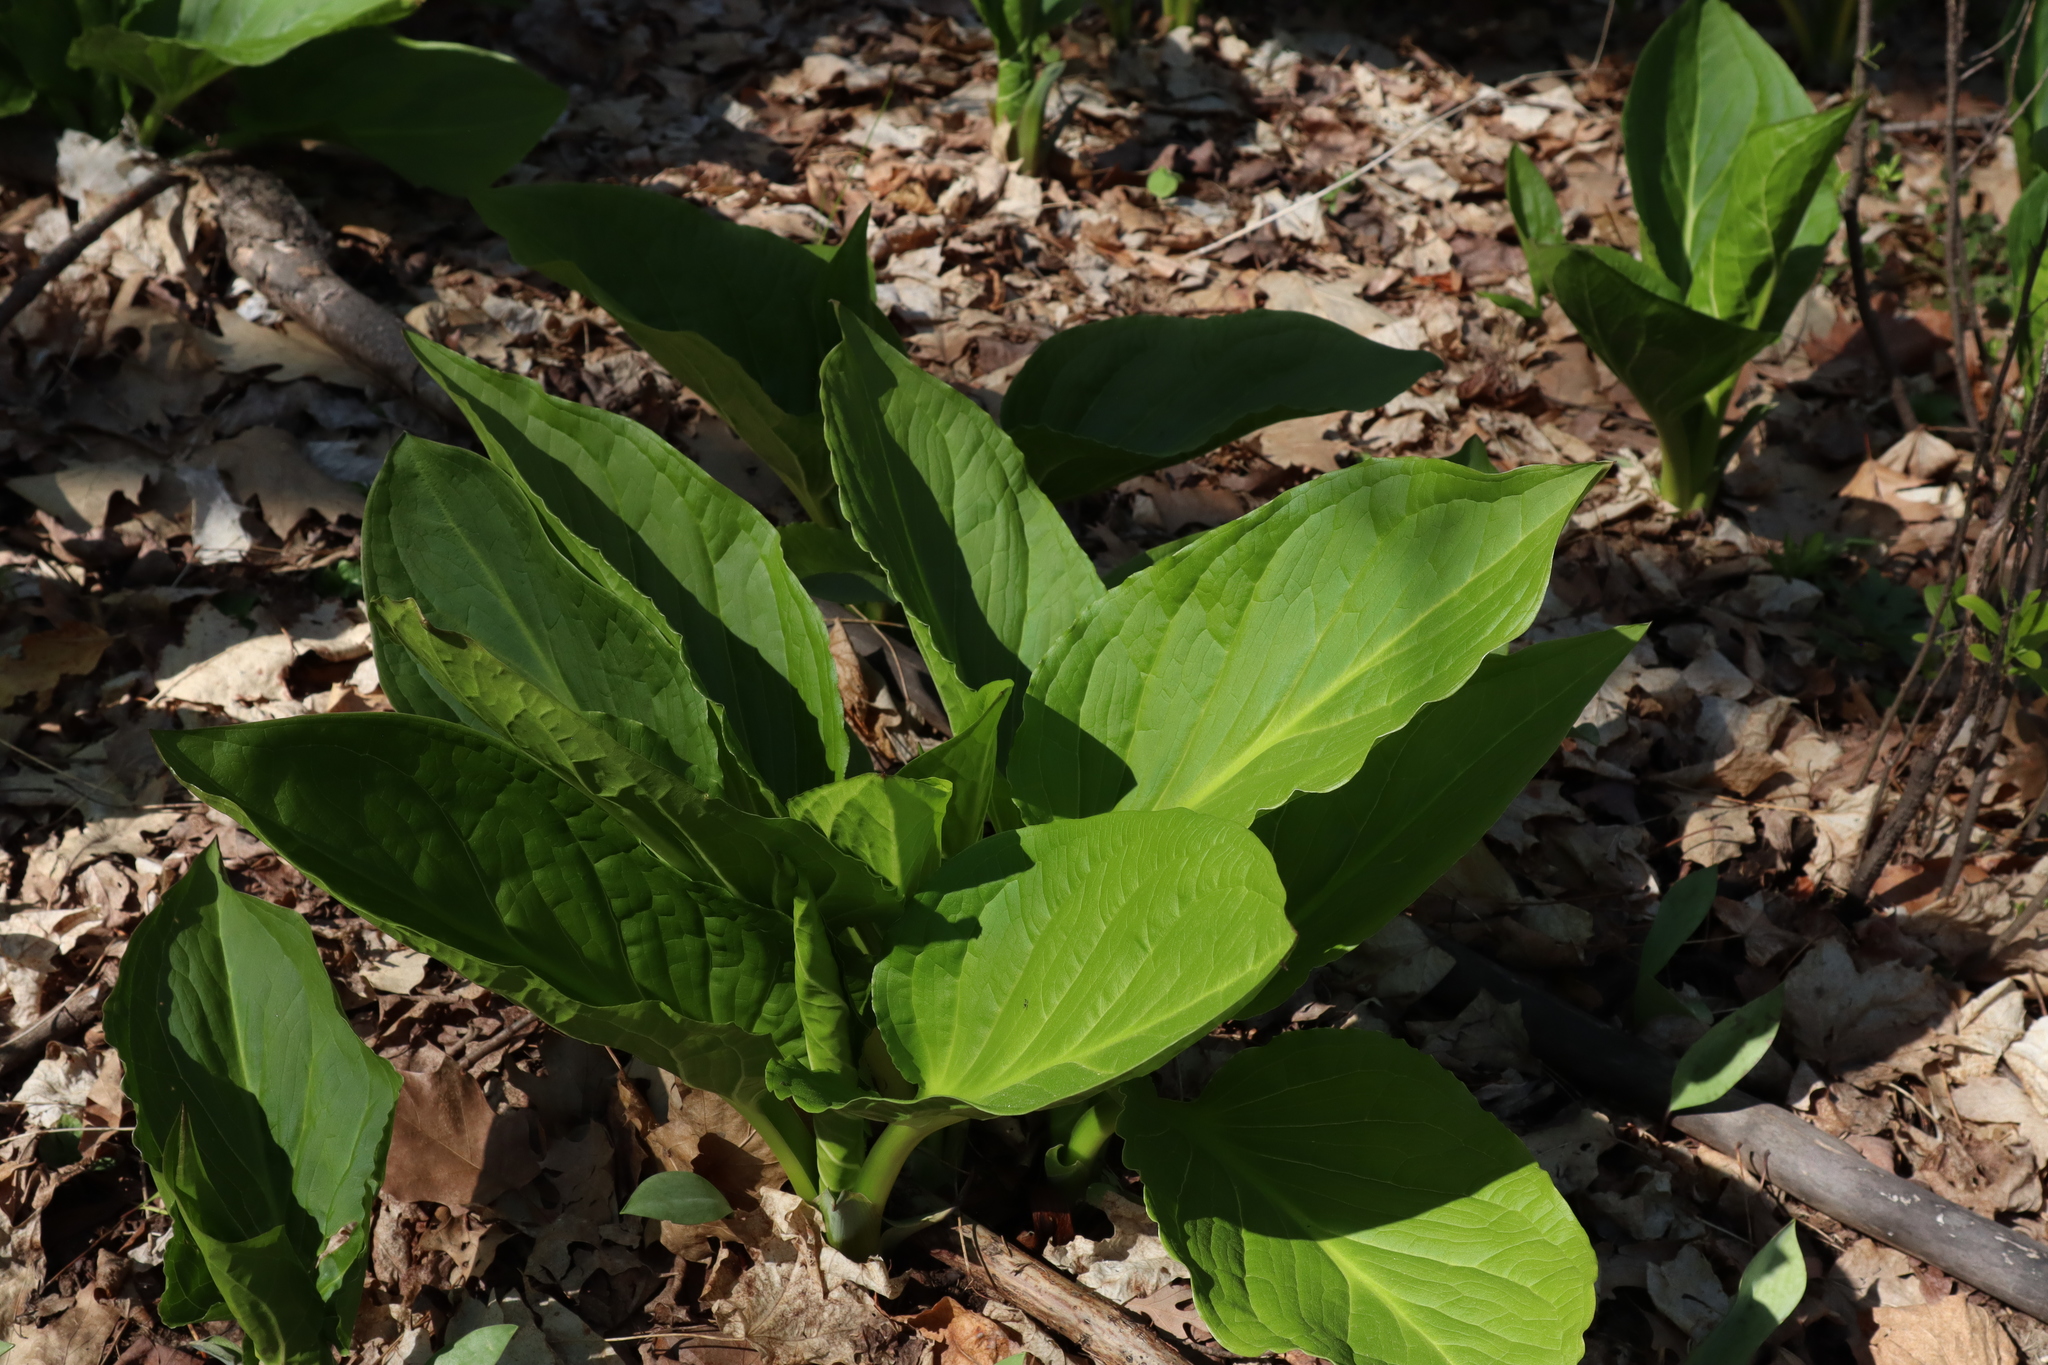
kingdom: Plantae
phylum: Tracheophyta
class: Liliopsida
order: Alismatales
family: Araceae
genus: Symplocarpus
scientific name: Symplocarpus foetidus
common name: Eastern skunk cabbage
